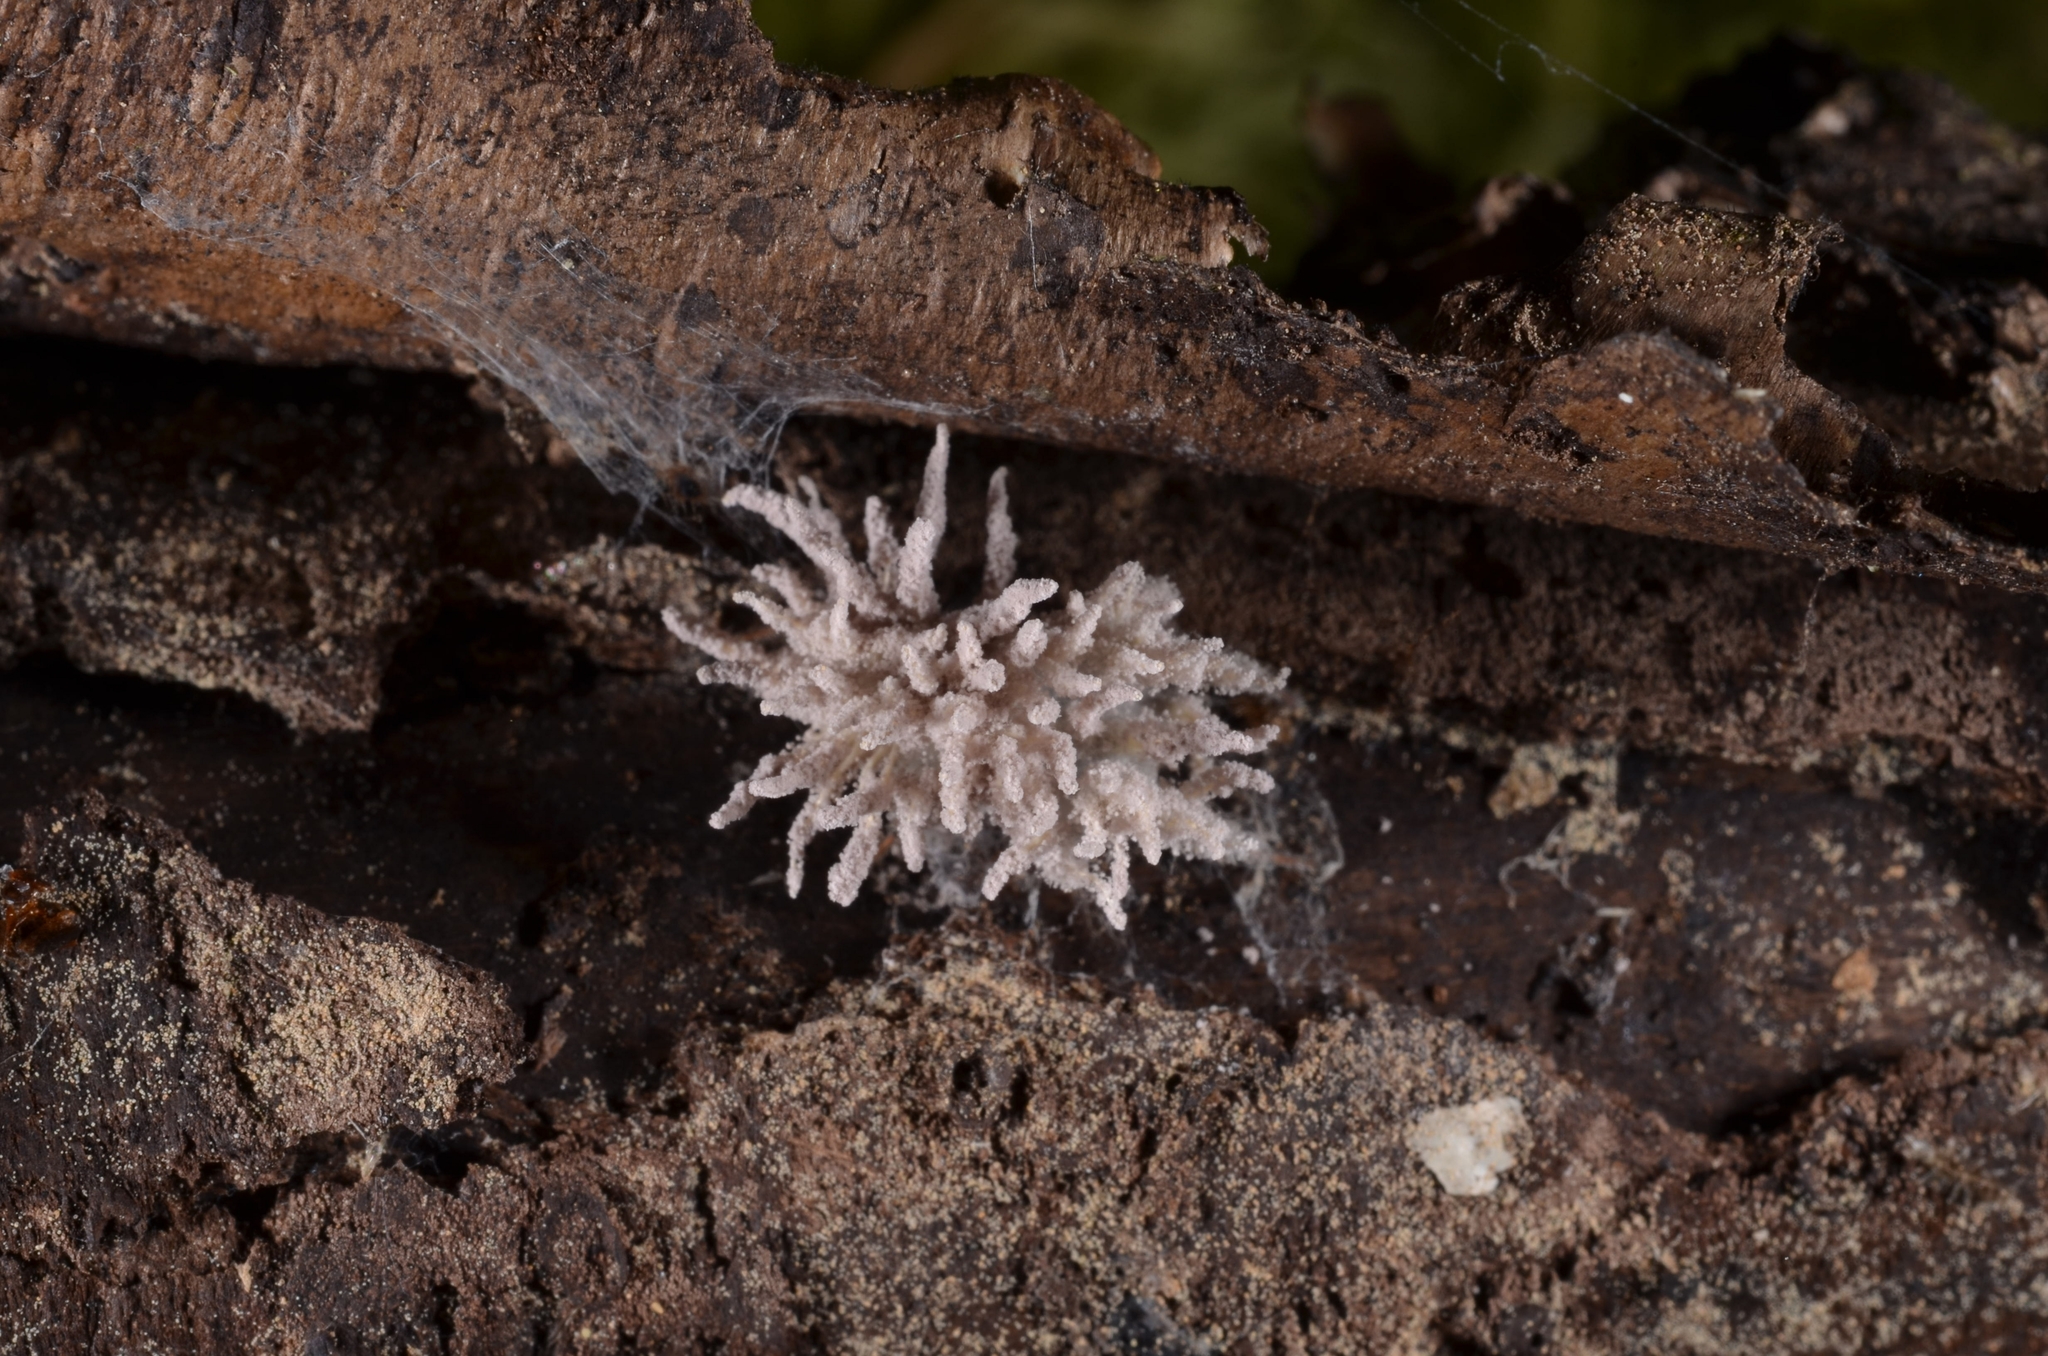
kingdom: Fungi
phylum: Ascomycota
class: Sordariomycetes
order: Hypocreales
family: Cordycipitaceae
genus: Gibellula
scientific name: Gibellula arachnophila
